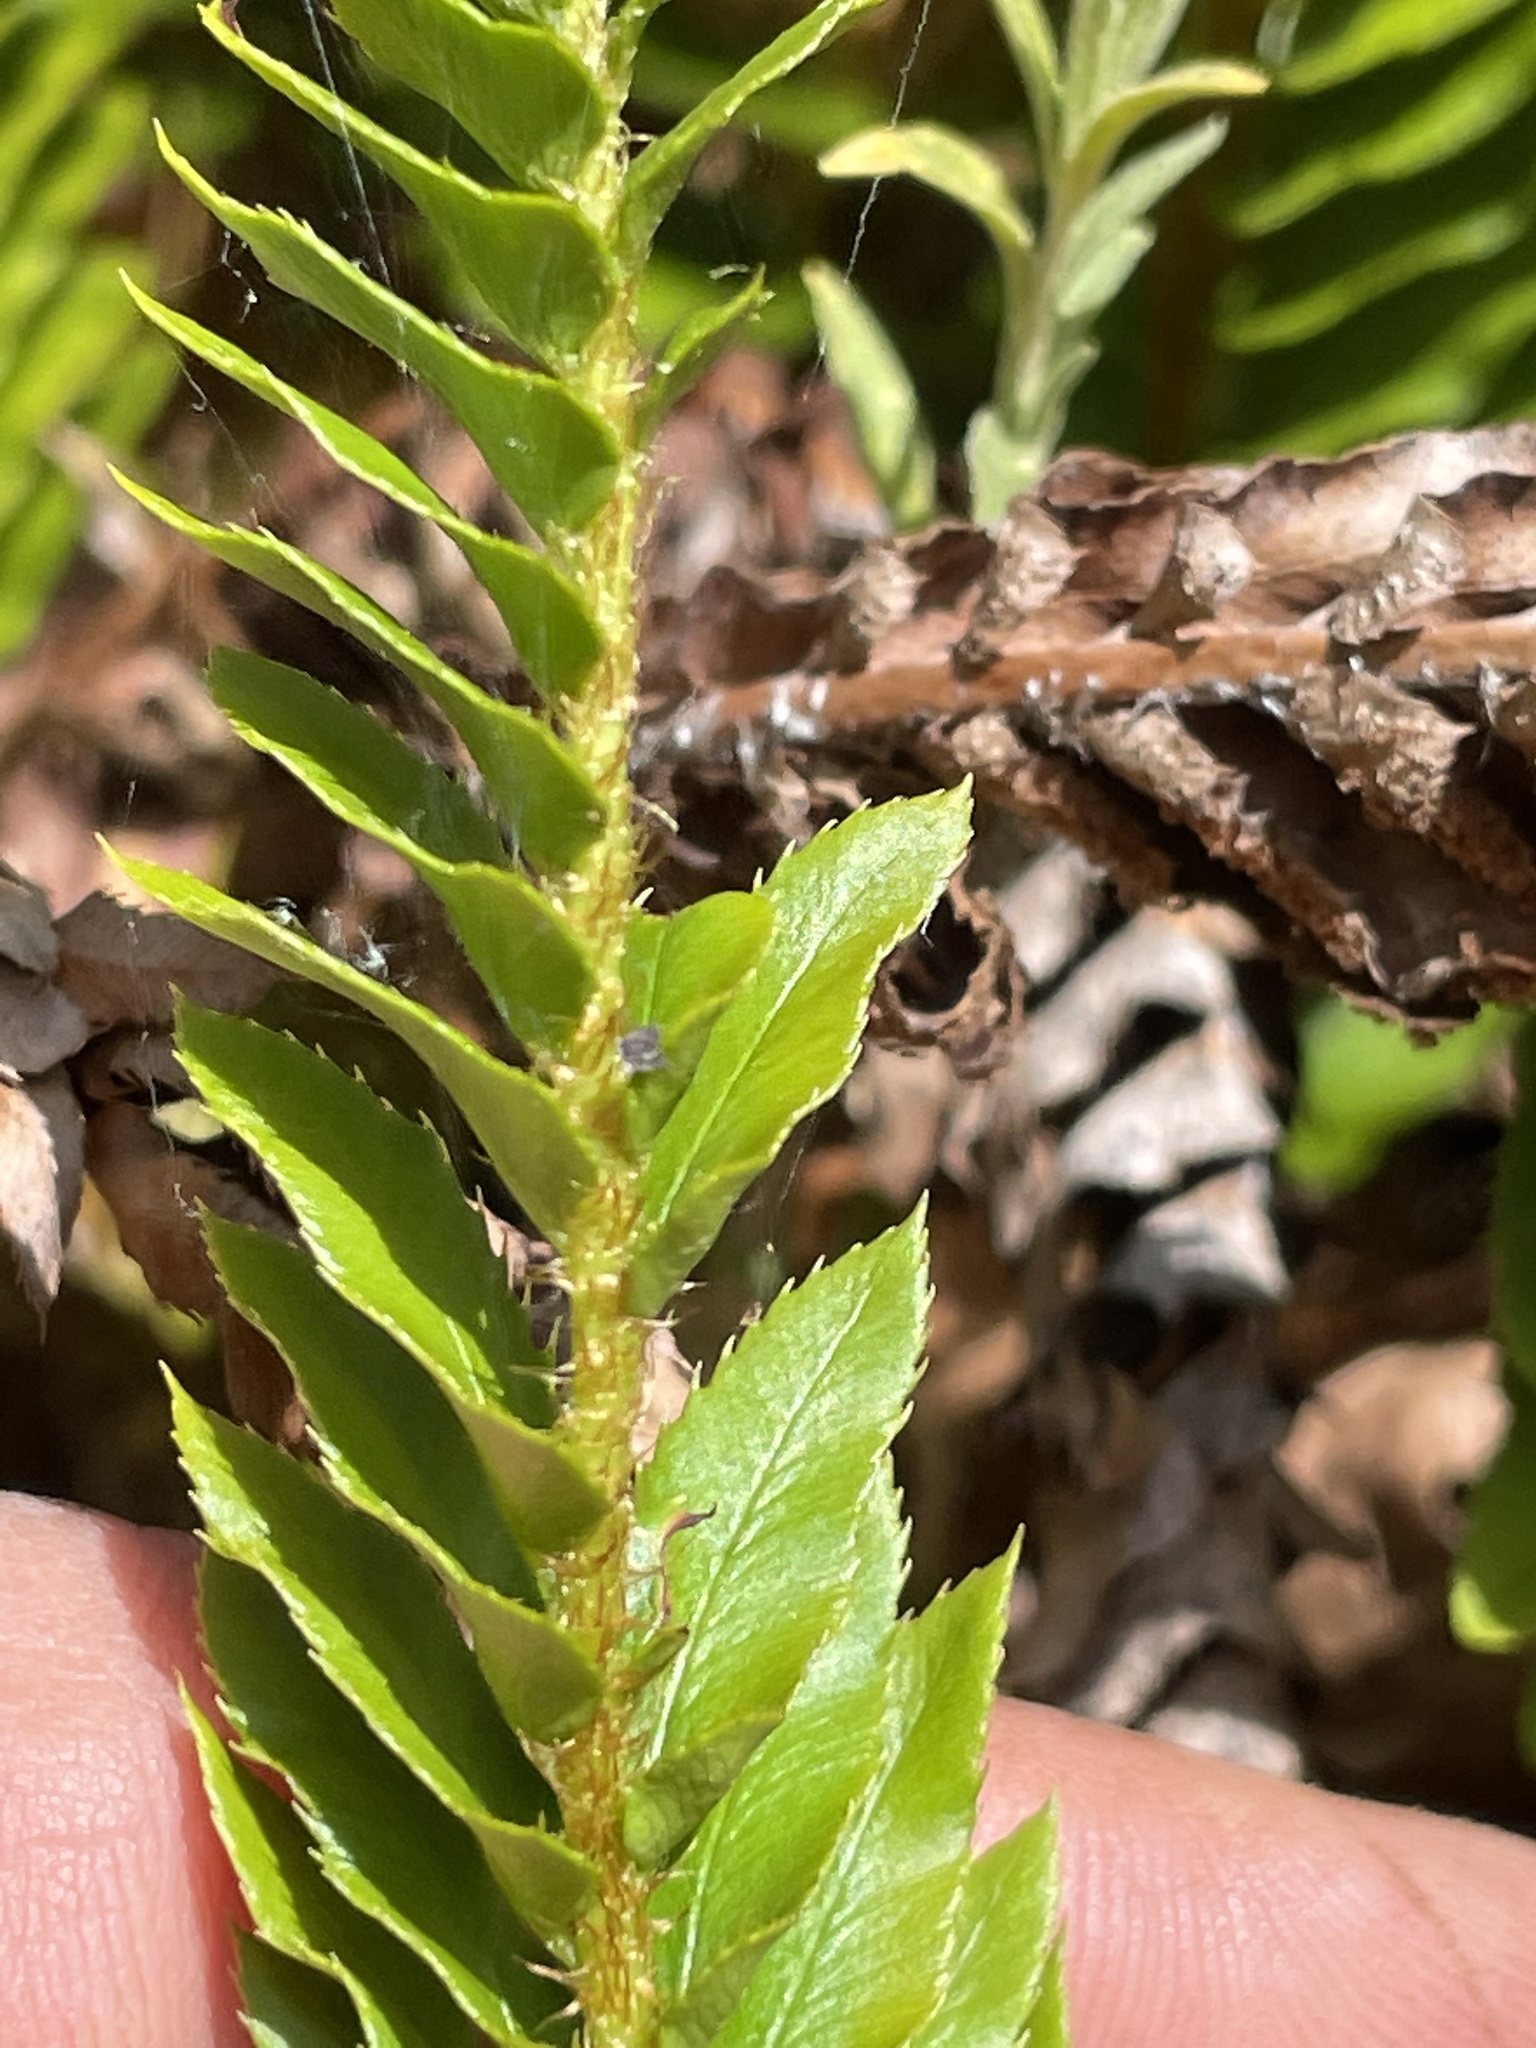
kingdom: Plantae
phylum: Tracheophyta
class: Polypodiopsida
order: Polypodiales
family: Dryopteridaceae
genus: Polystichum
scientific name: Polystichum imbricans
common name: Dwarf western sword fern
